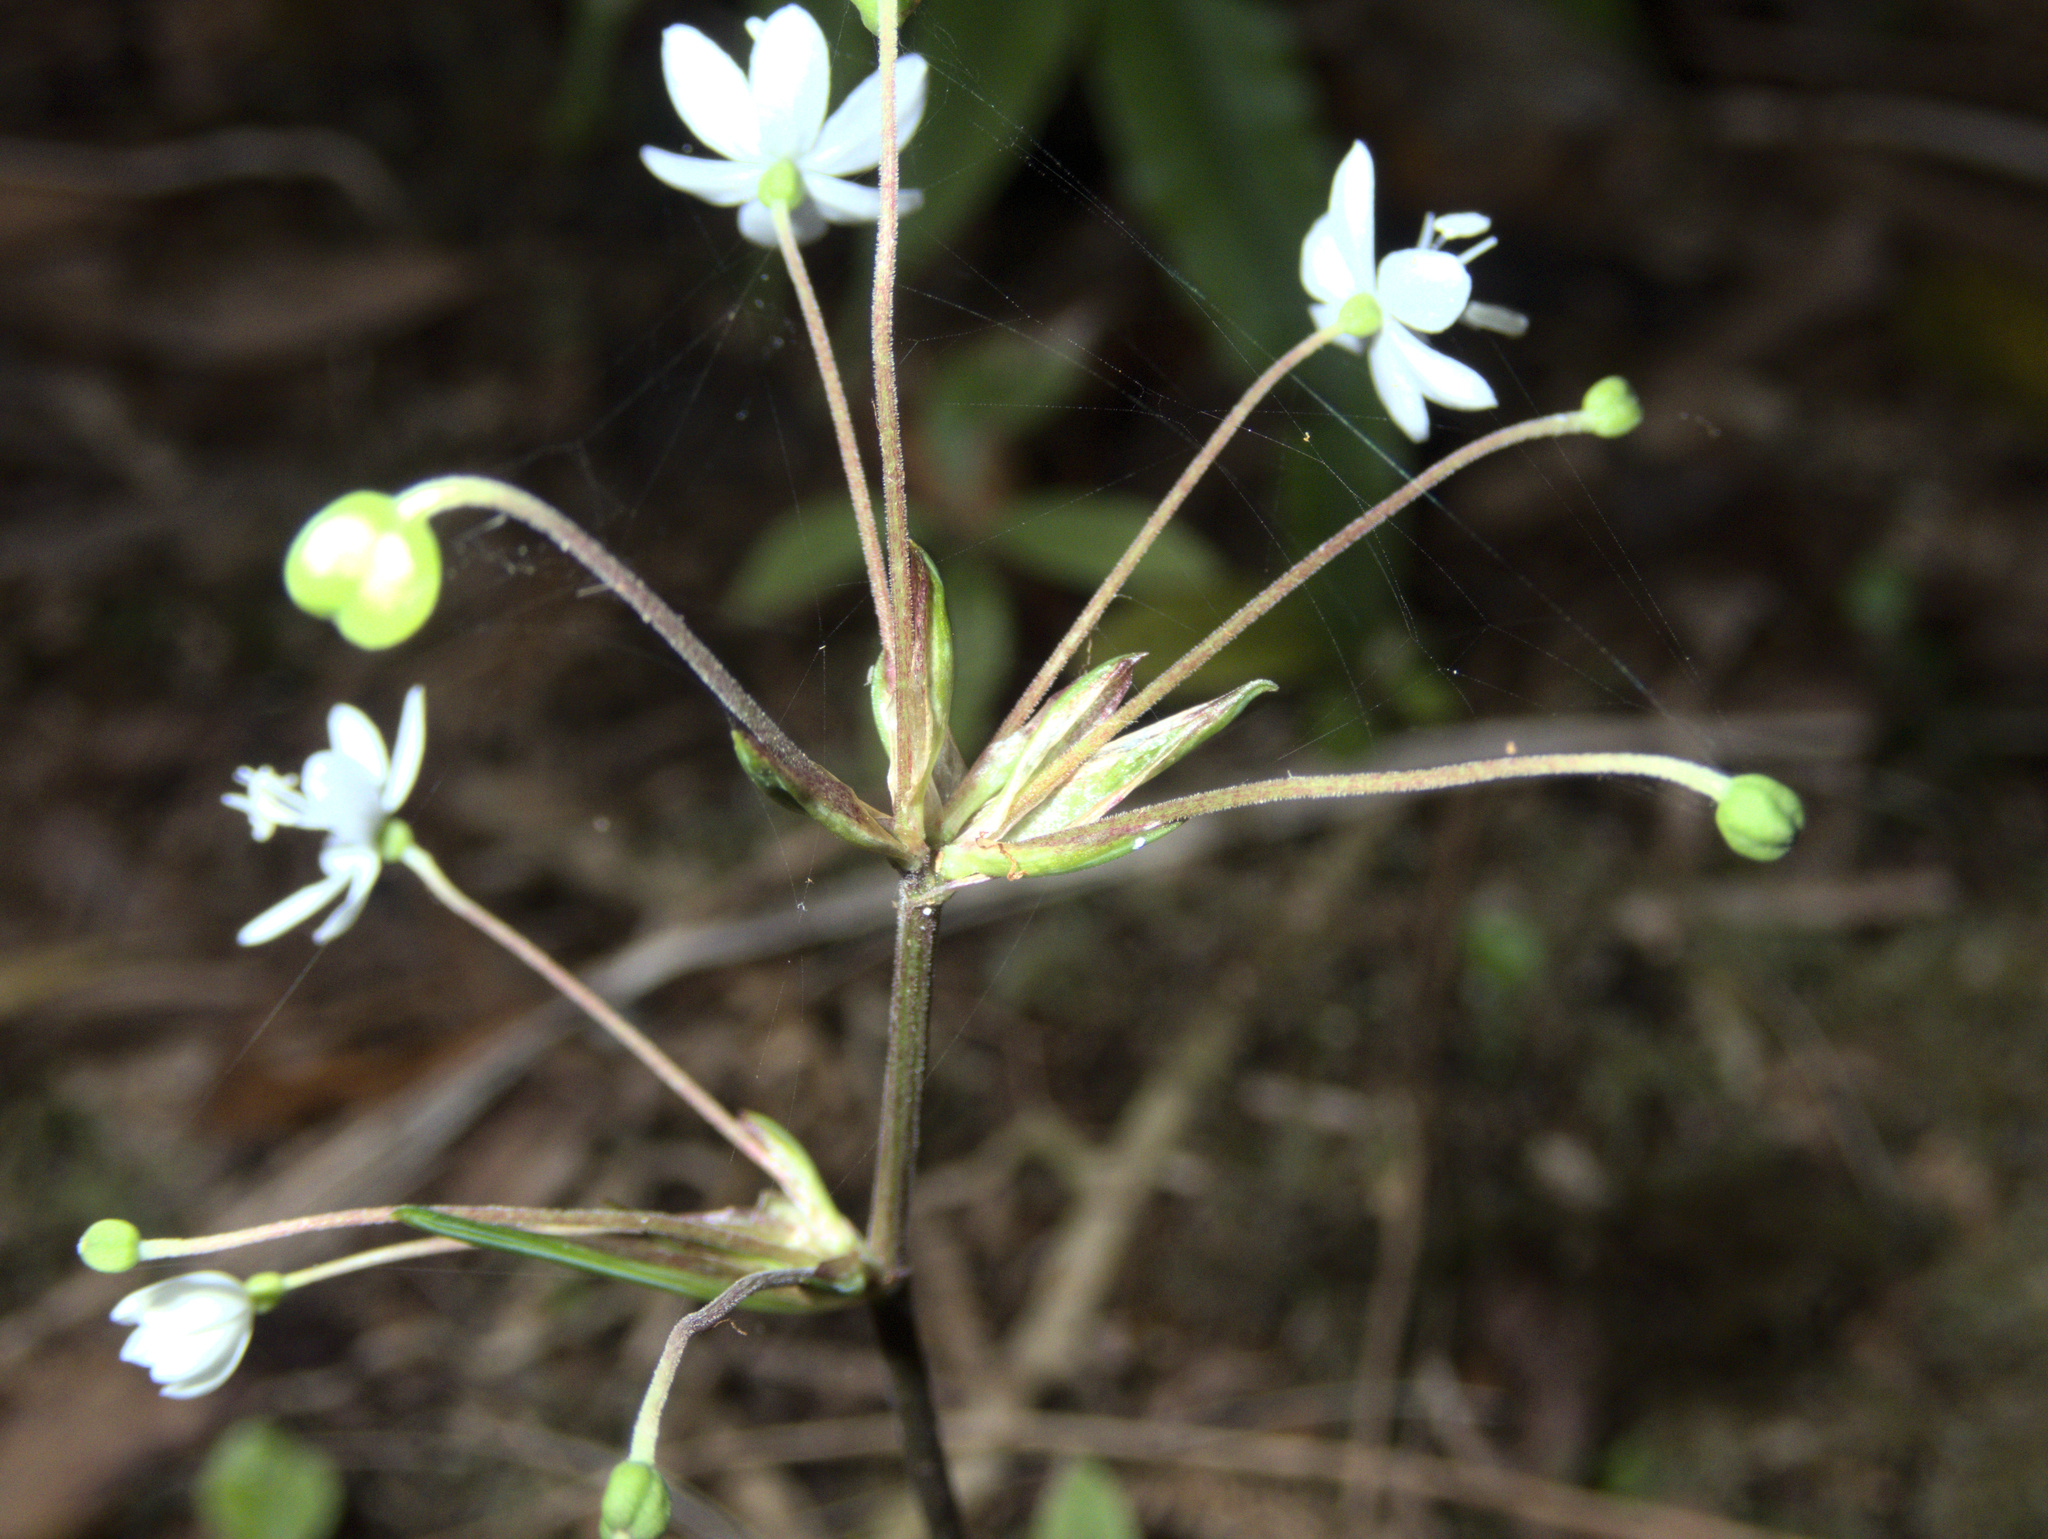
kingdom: Plantae
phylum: Tracheophyta
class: Liliopsida
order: Asparagales
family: Iridaceae
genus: Libertia
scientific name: Libertia micrantha
